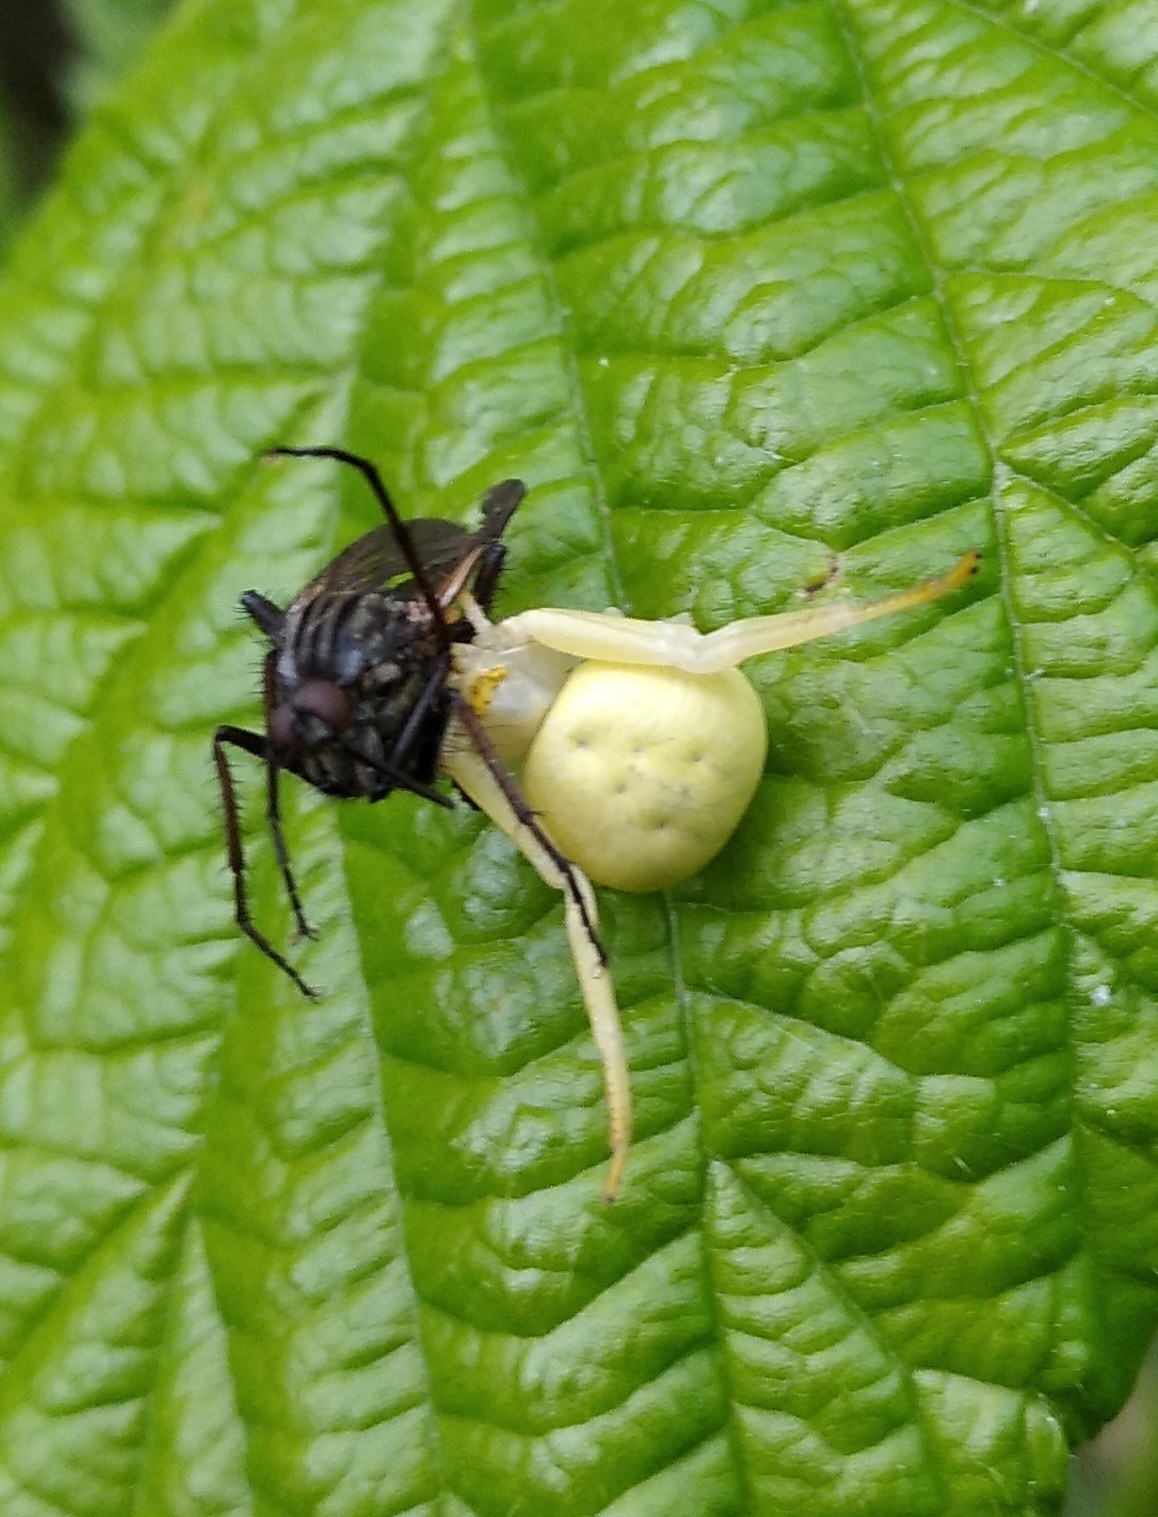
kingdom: Animalia
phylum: Arthropoda
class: Arachnida
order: Araneae
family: Thomisidae
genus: Misumena
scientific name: Misumena vatia
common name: Goldenrod crab spider
